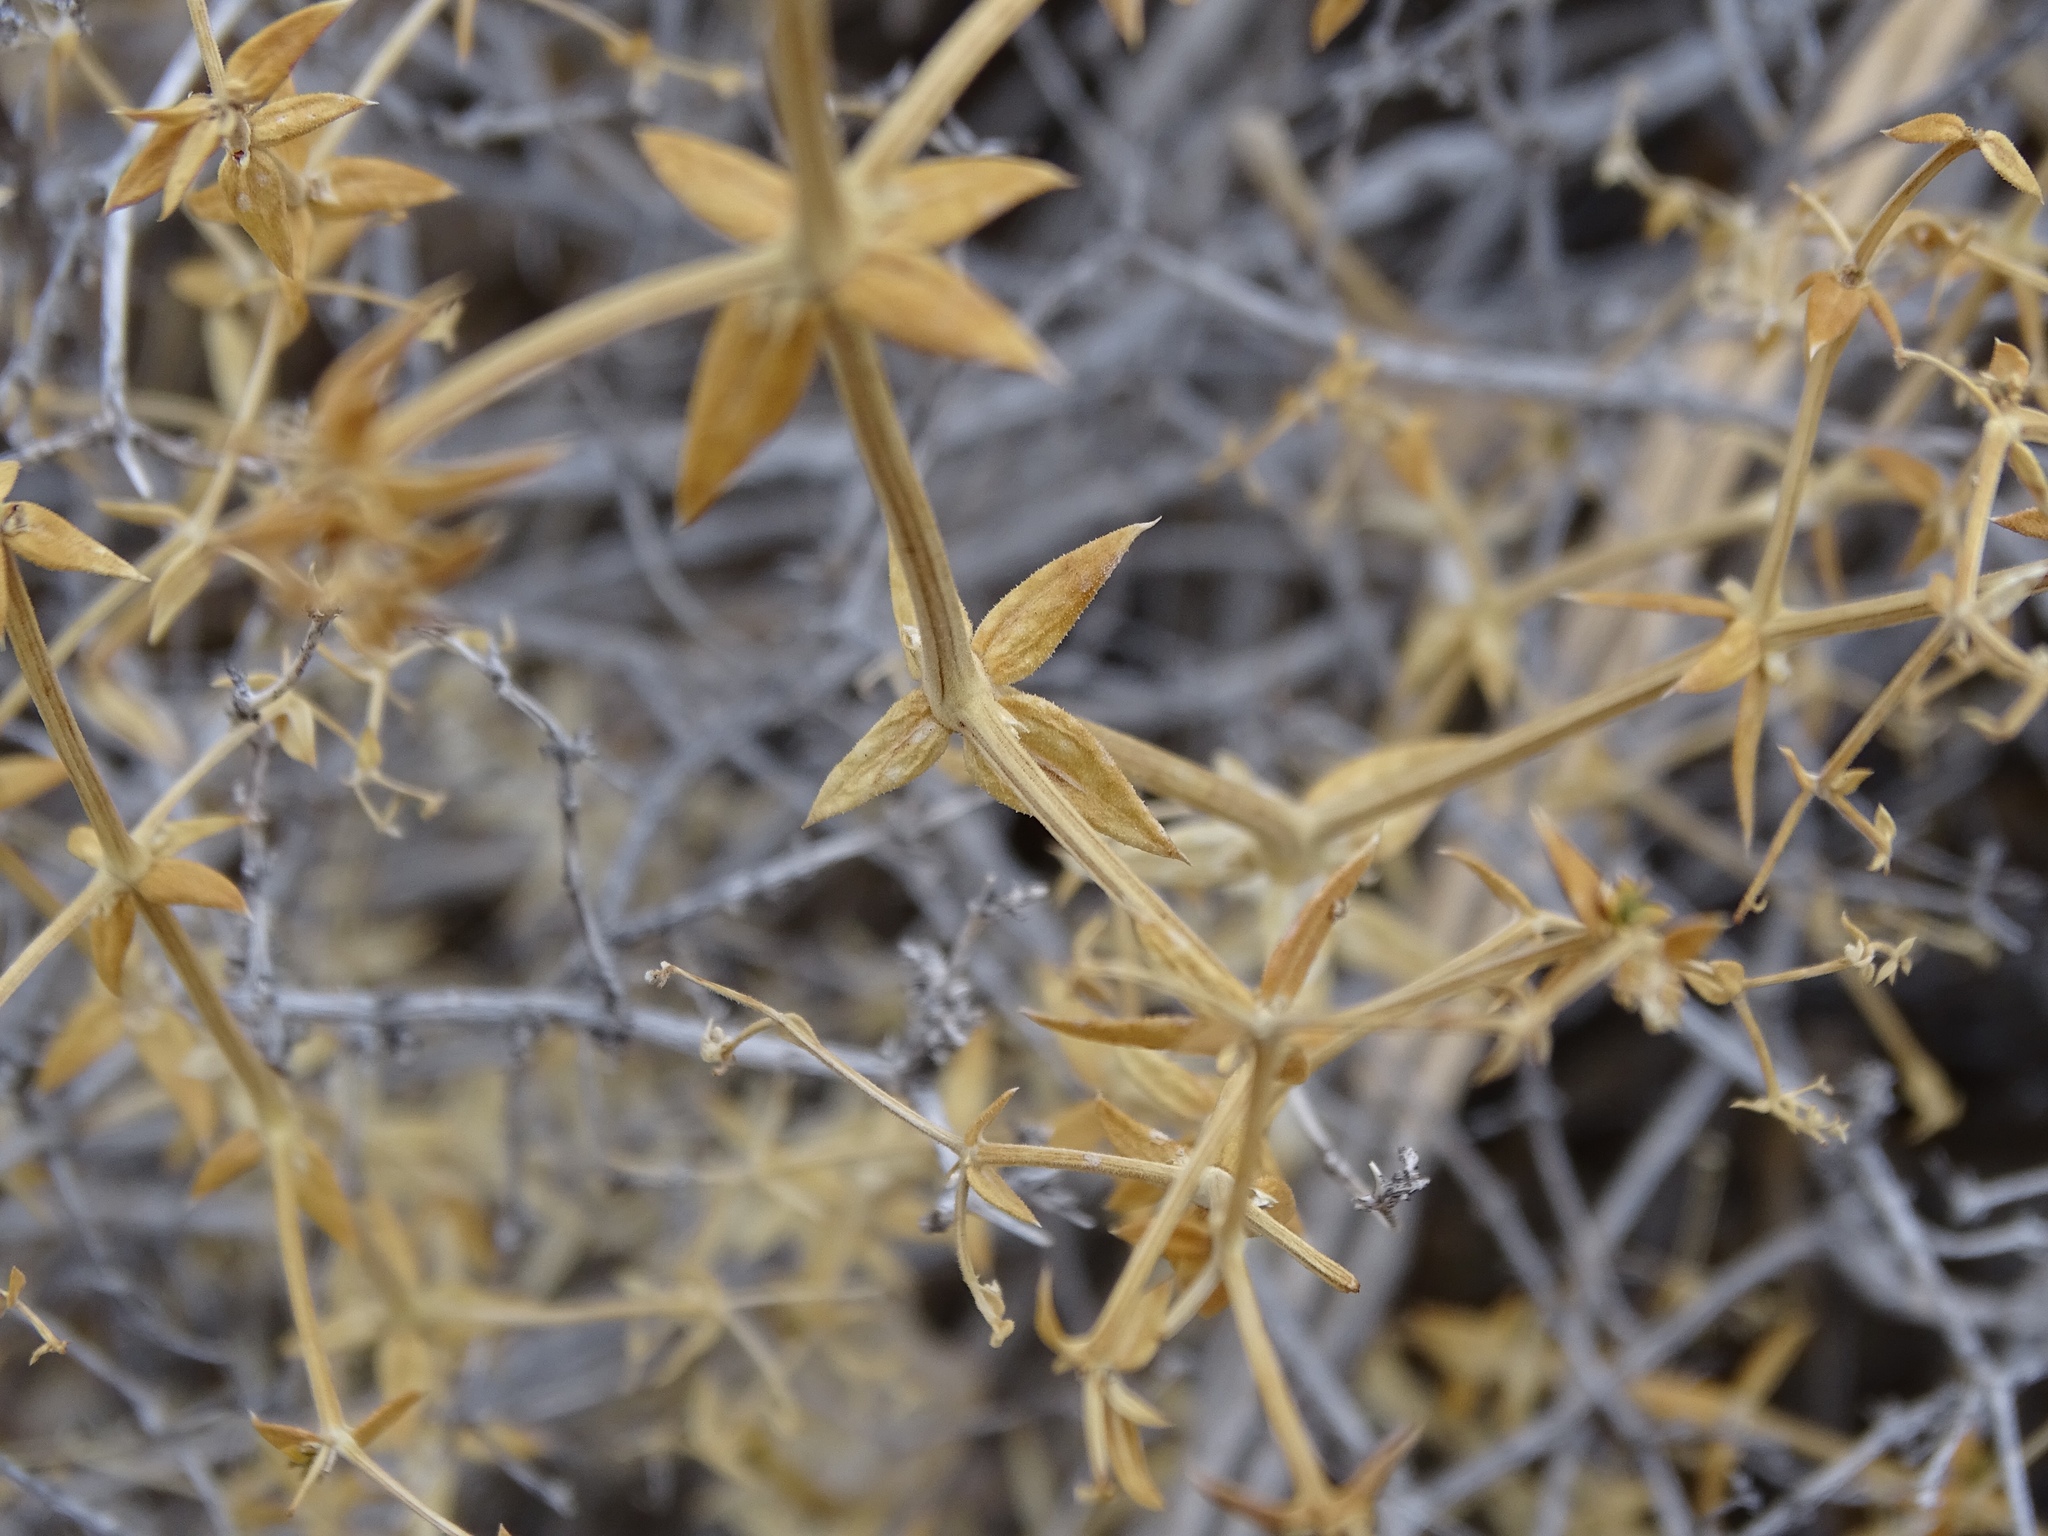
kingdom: Plantae
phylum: Tracheophyta
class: Magnoliopsida
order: Gentianales
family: Rubiaceae
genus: Galium
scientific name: Galium stellatum
